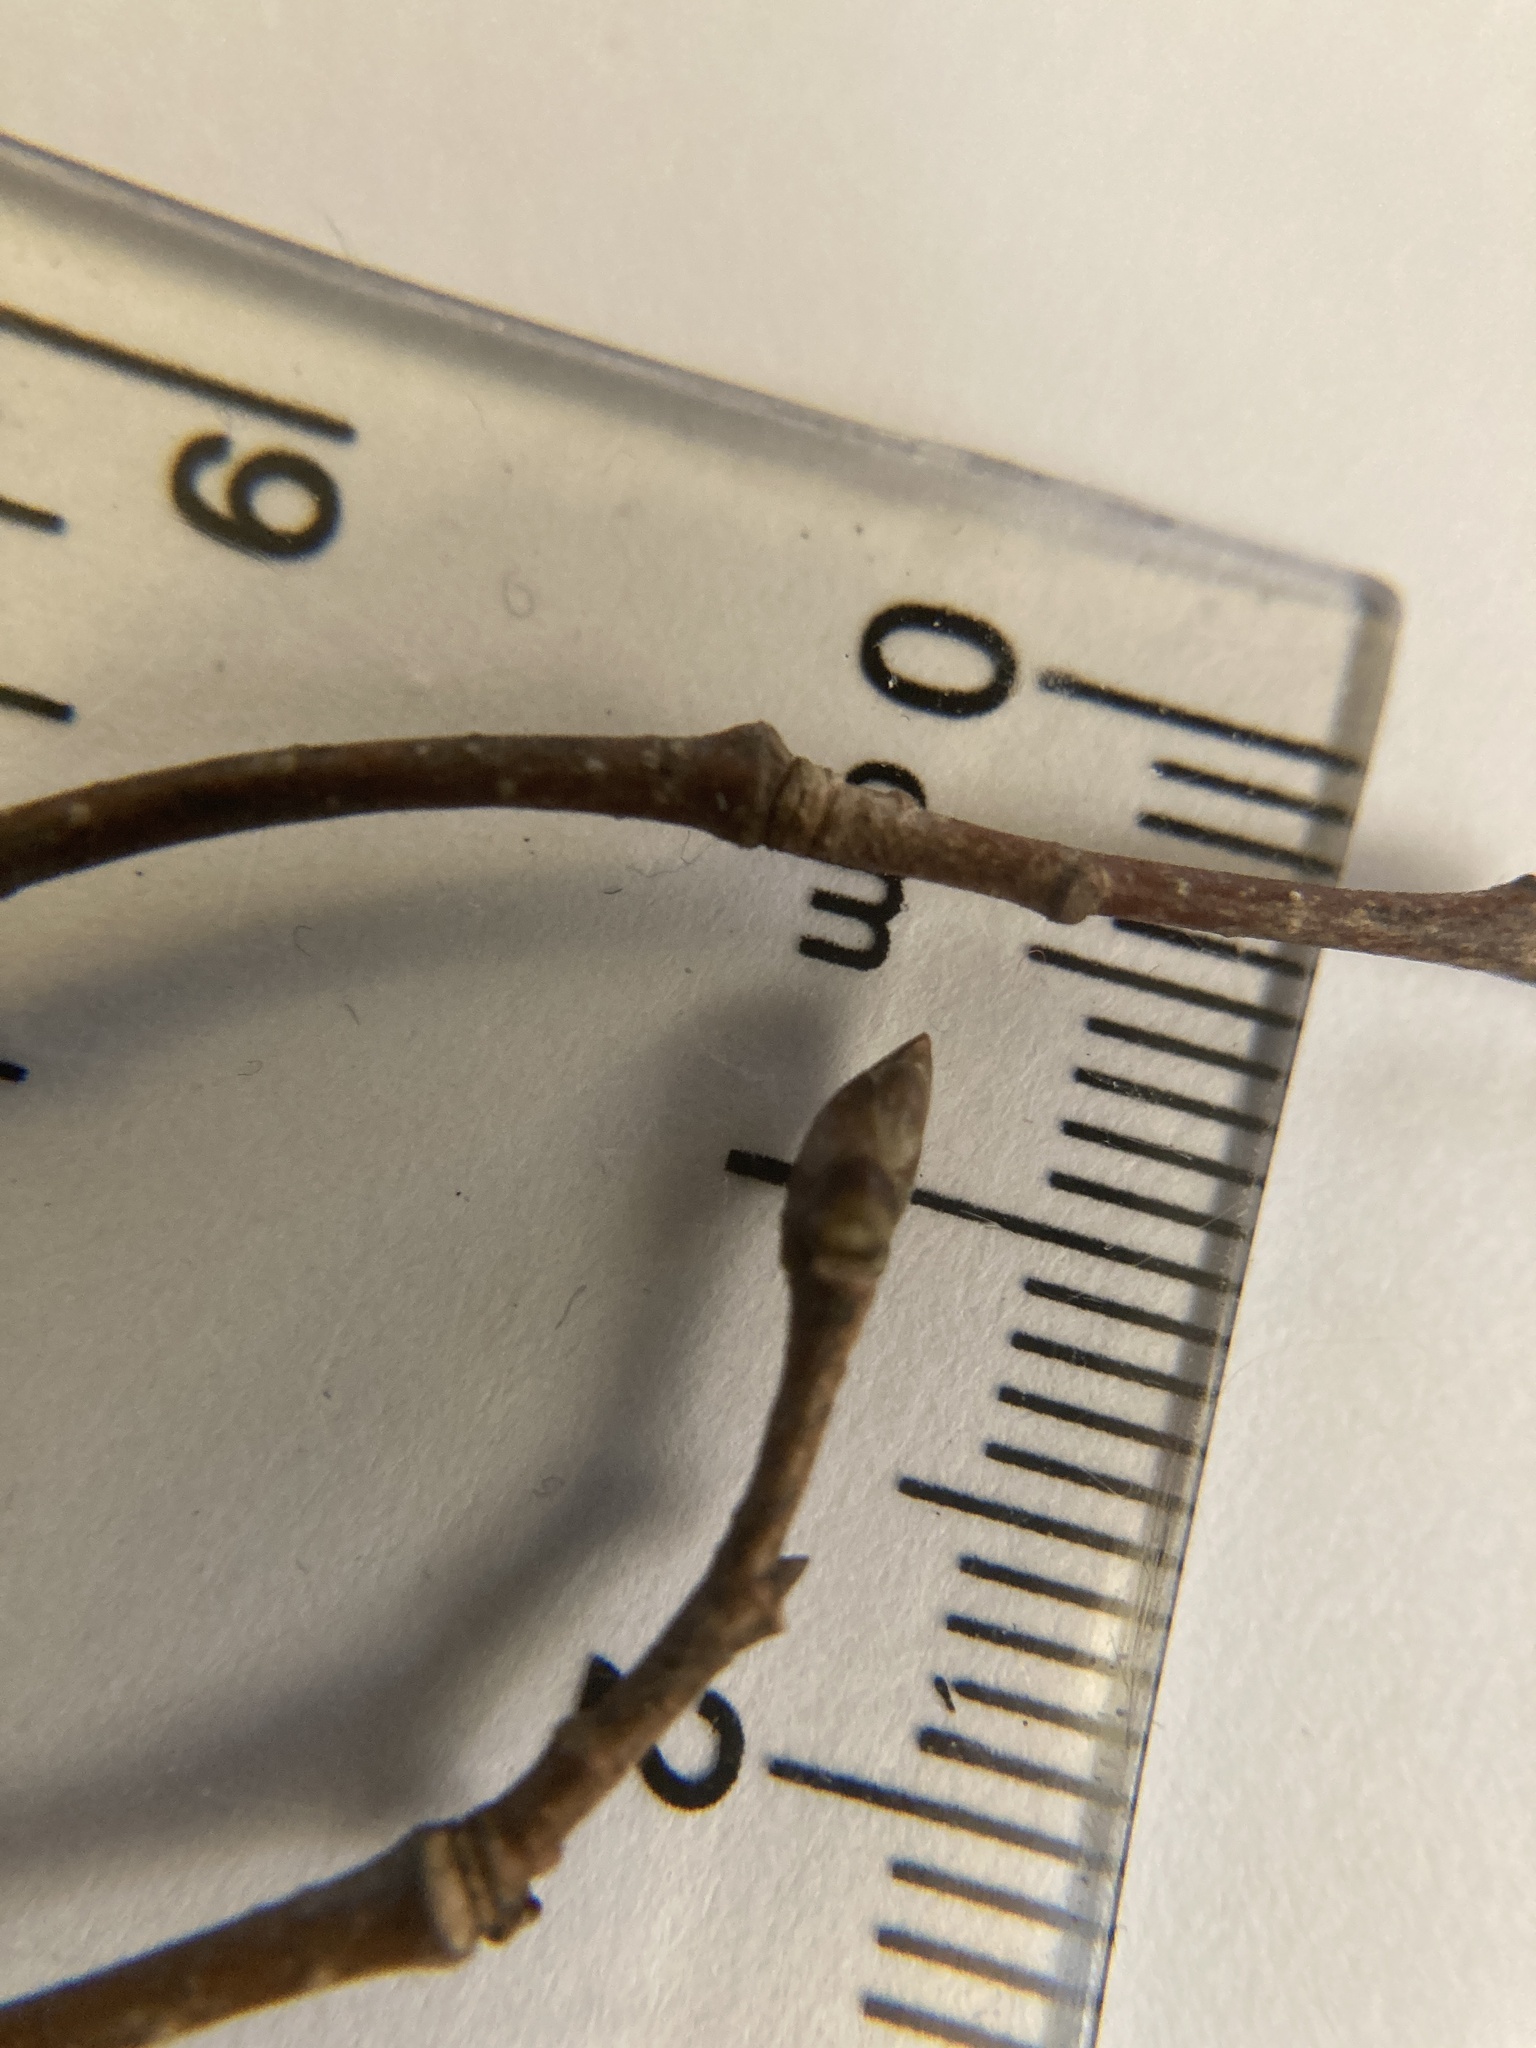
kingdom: Plantae
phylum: Tracheophyta
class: Magnoliopsida
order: Fagales
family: Betulaceae
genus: Ostrya
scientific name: Ostrya virginiana
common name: Ironwood
